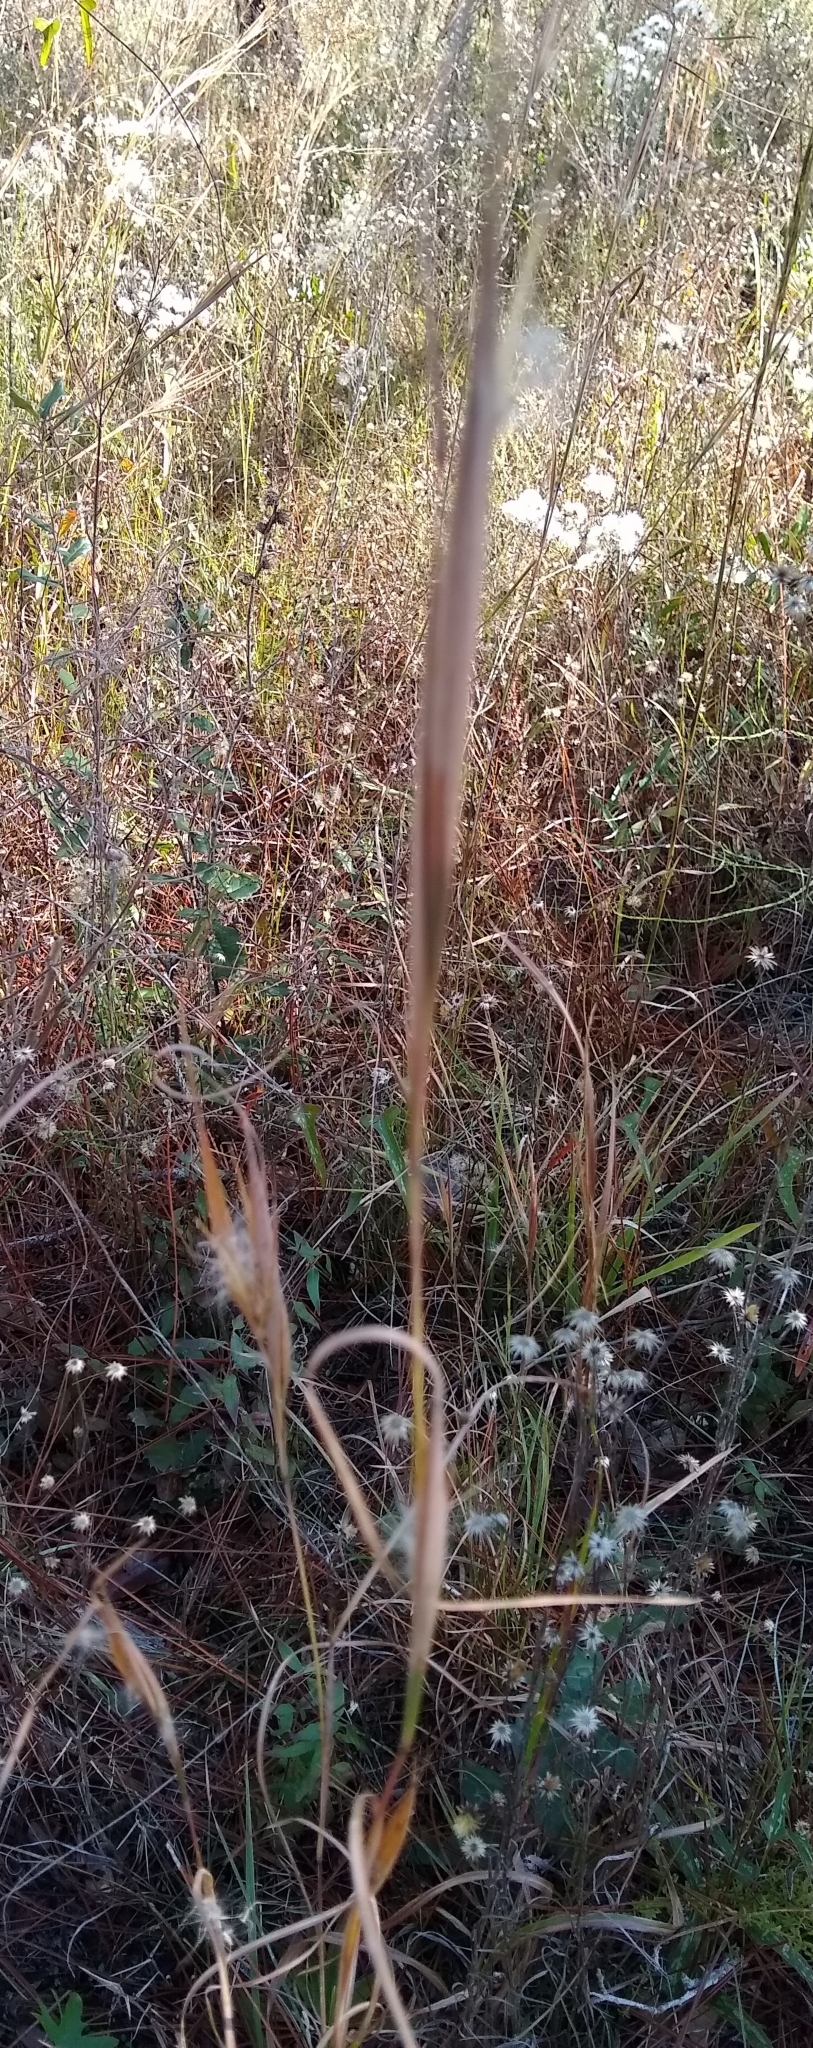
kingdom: Plantae
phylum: Tracheophyta
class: Liliopsida
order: Poales
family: Poaceae
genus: Andropogon
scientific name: Andropogon gyrans
